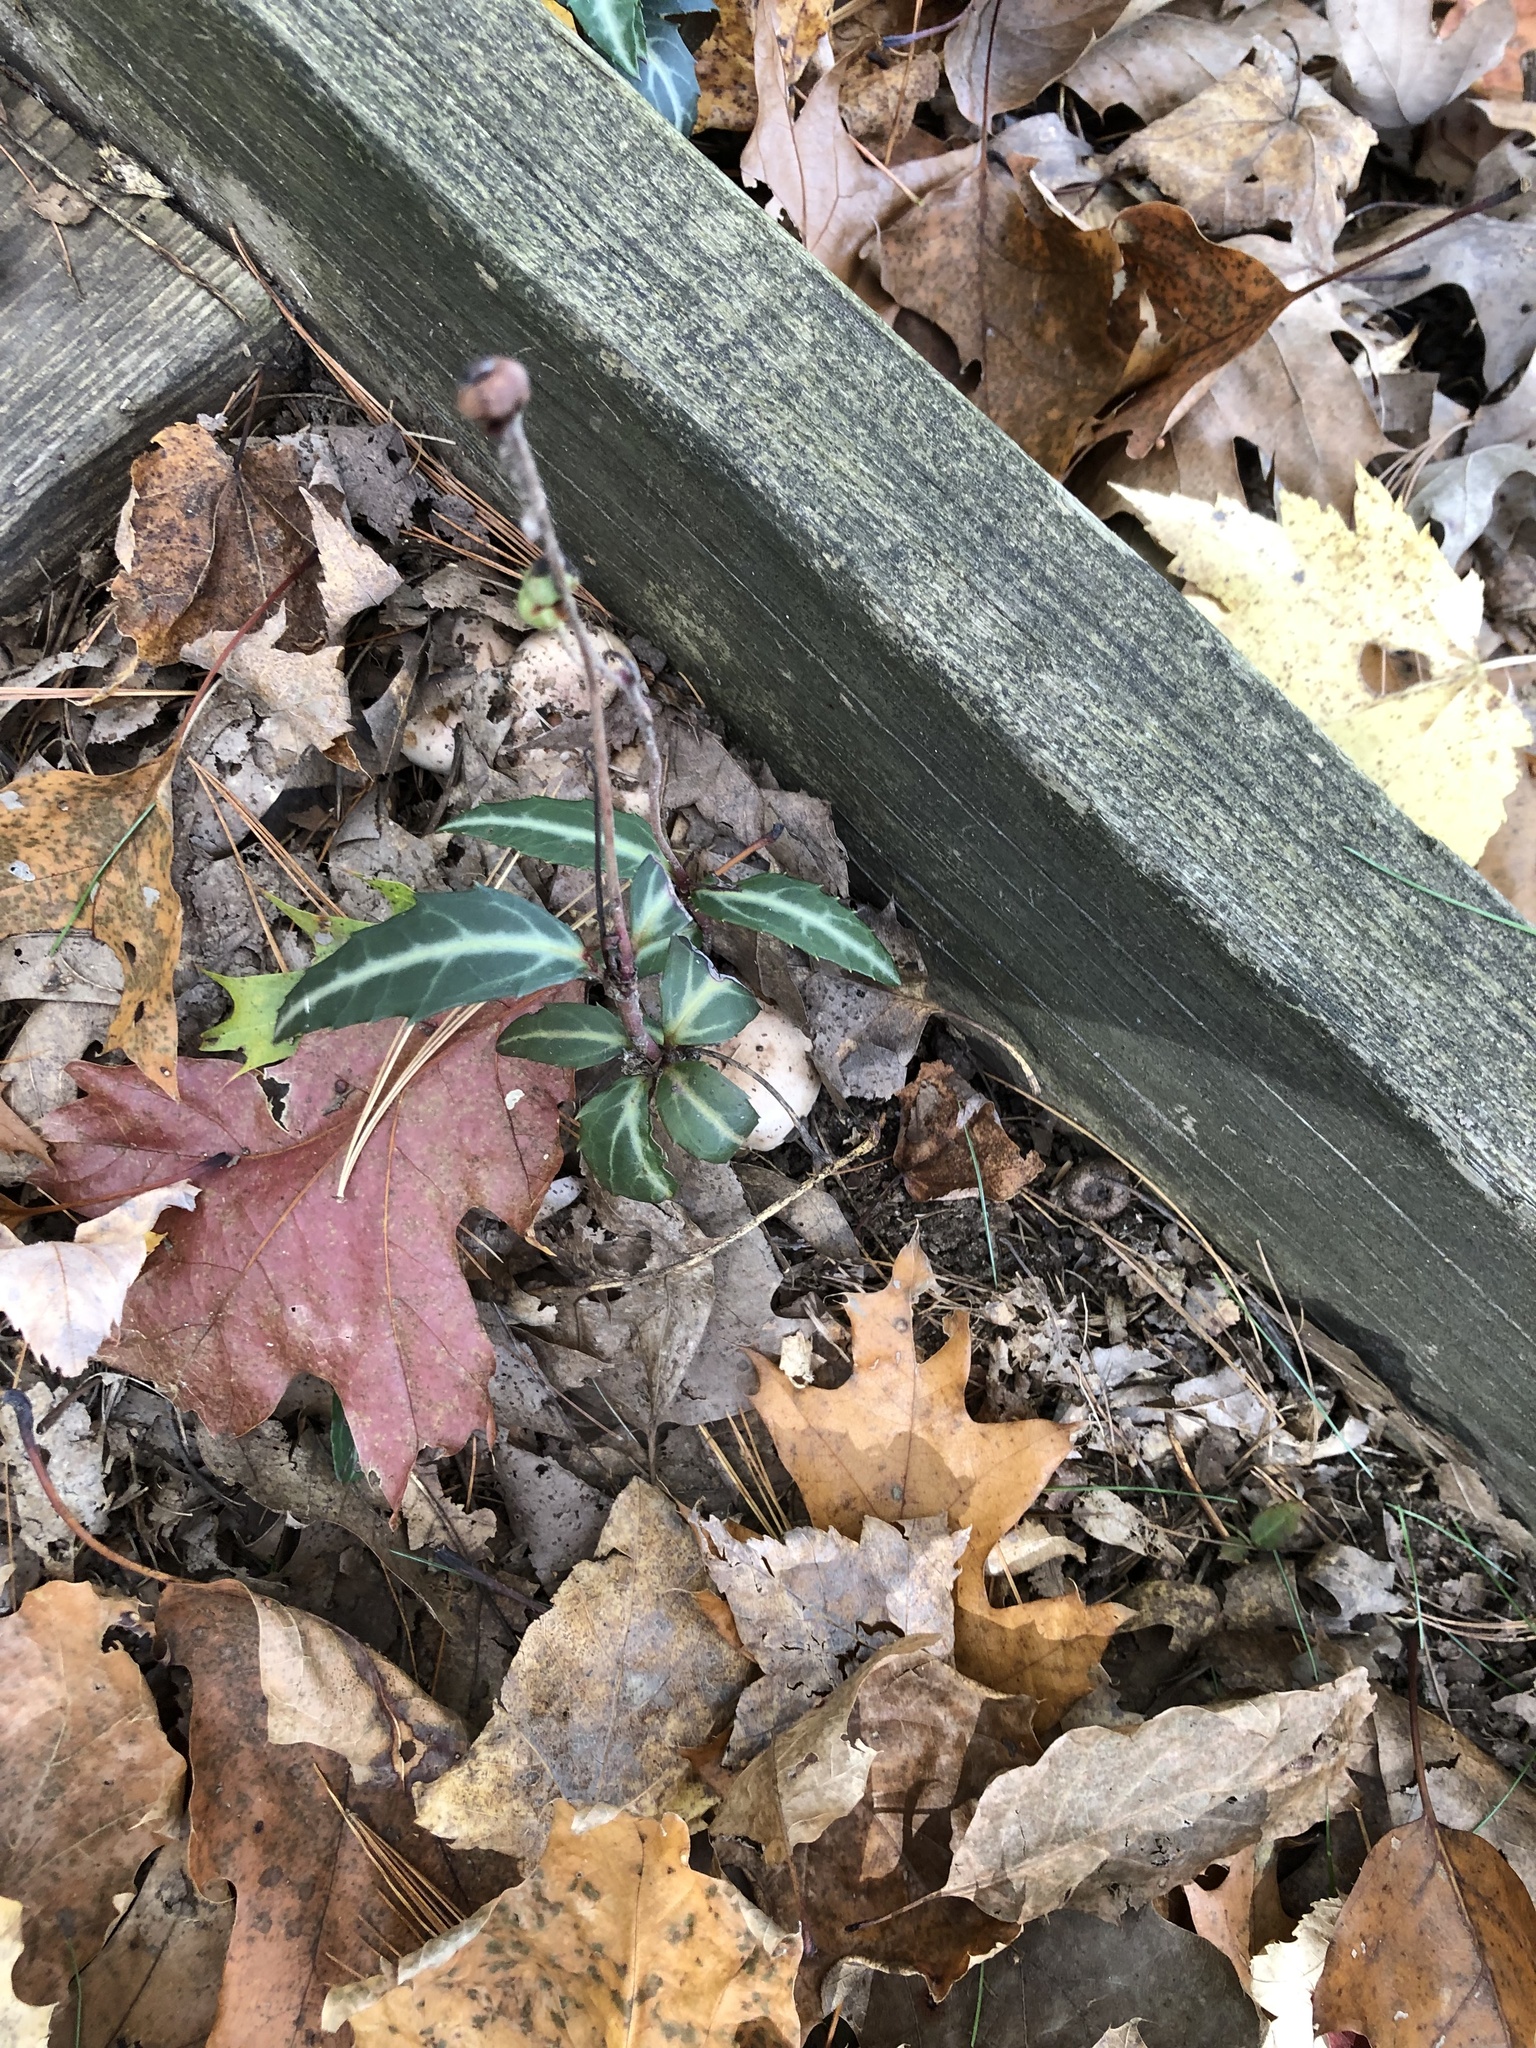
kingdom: Plantae
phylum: Tracheophyta
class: Magnoliopsida
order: Ericales
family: Ericaceae
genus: Chimaphila
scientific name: Chimaphila maculata
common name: Spotted pipsissewa
